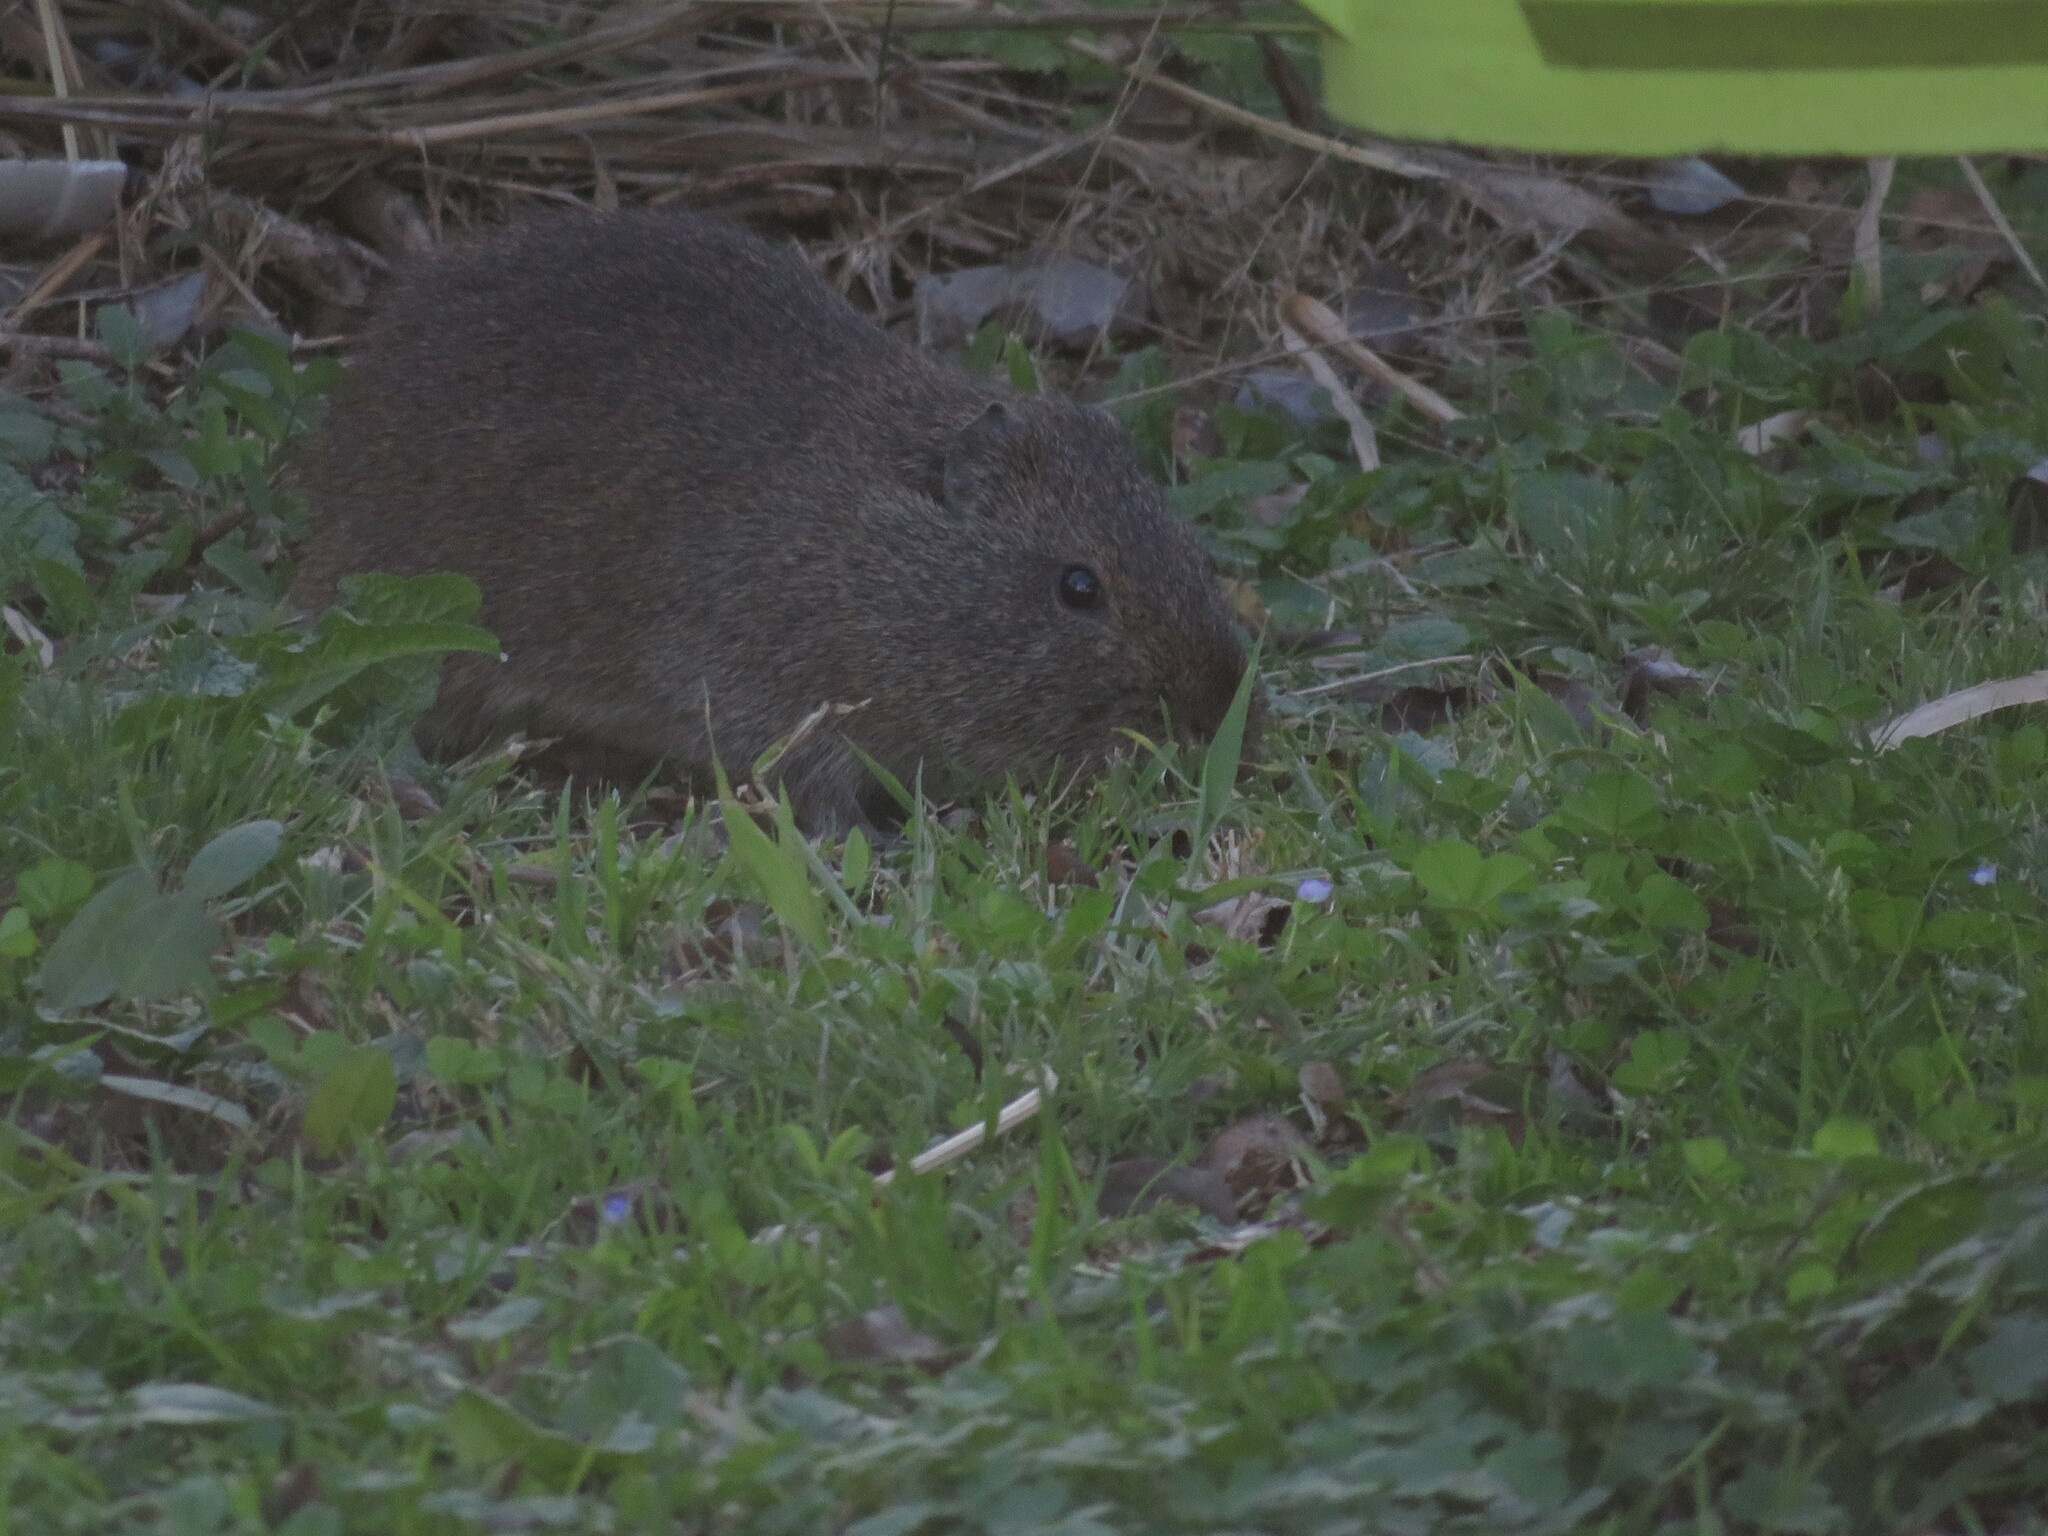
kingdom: Animalia
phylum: Chordata
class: Mammalia
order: Rodentia
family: Caviidae
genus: Cavia
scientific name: Cavia aperea
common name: Brazilian guinea pig
